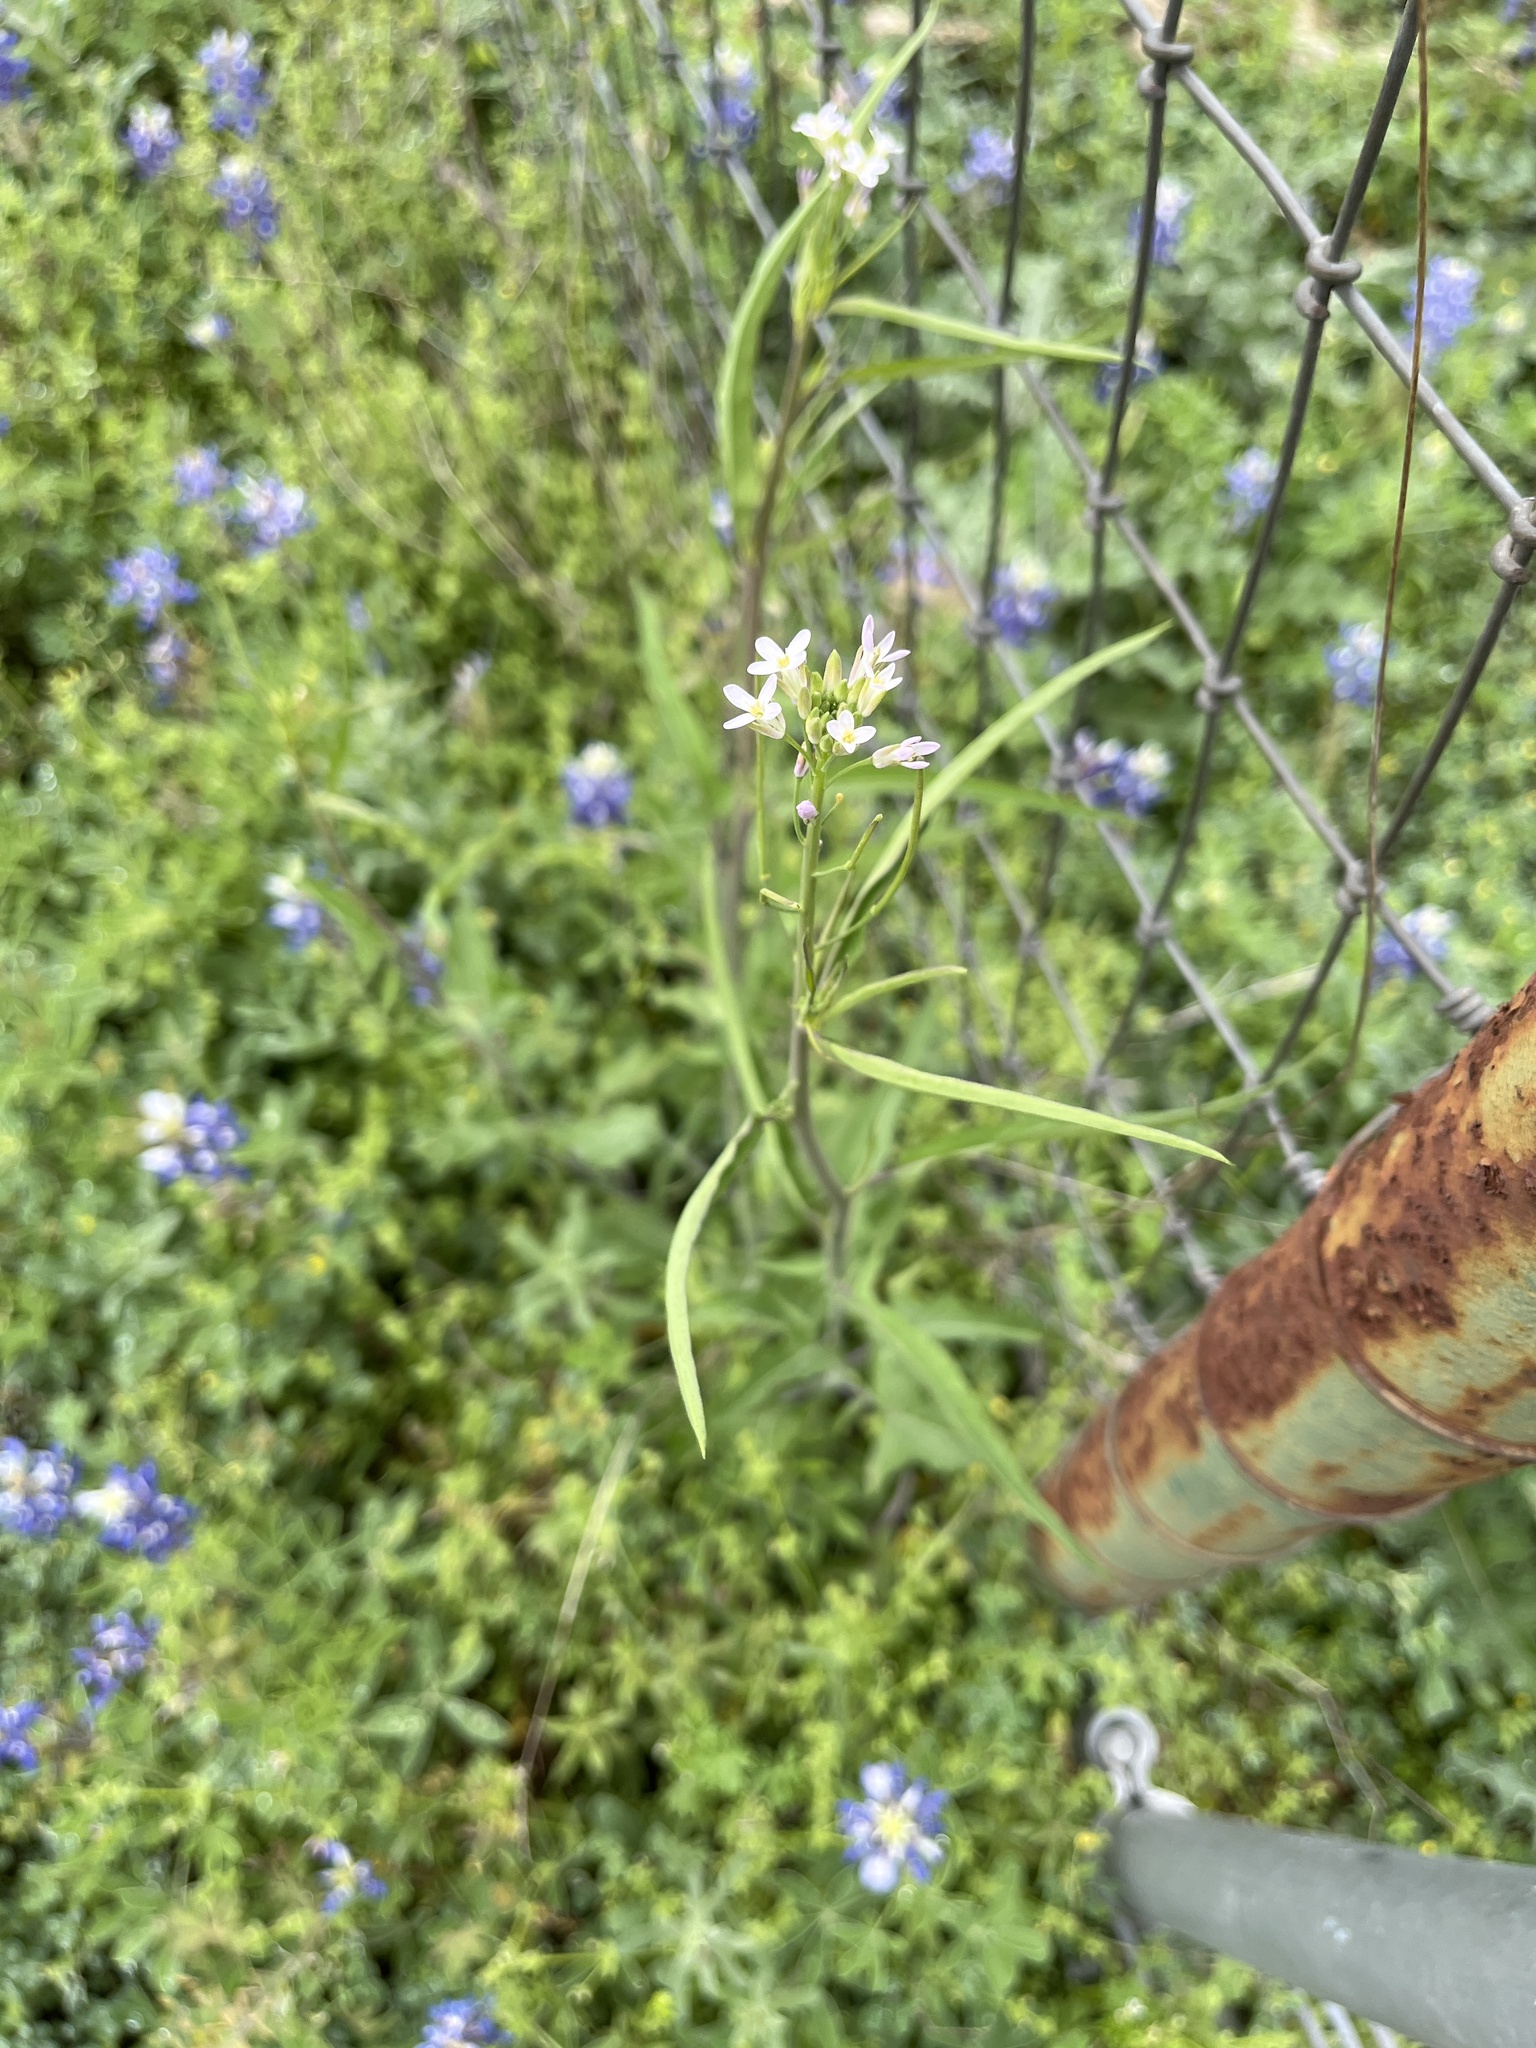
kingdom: Plantae
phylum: Tracheophyta
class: Magnoliopsida
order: Brassicales
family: Brassicaceae
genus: Streptanthus
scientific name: Streptanthus petiolaris
